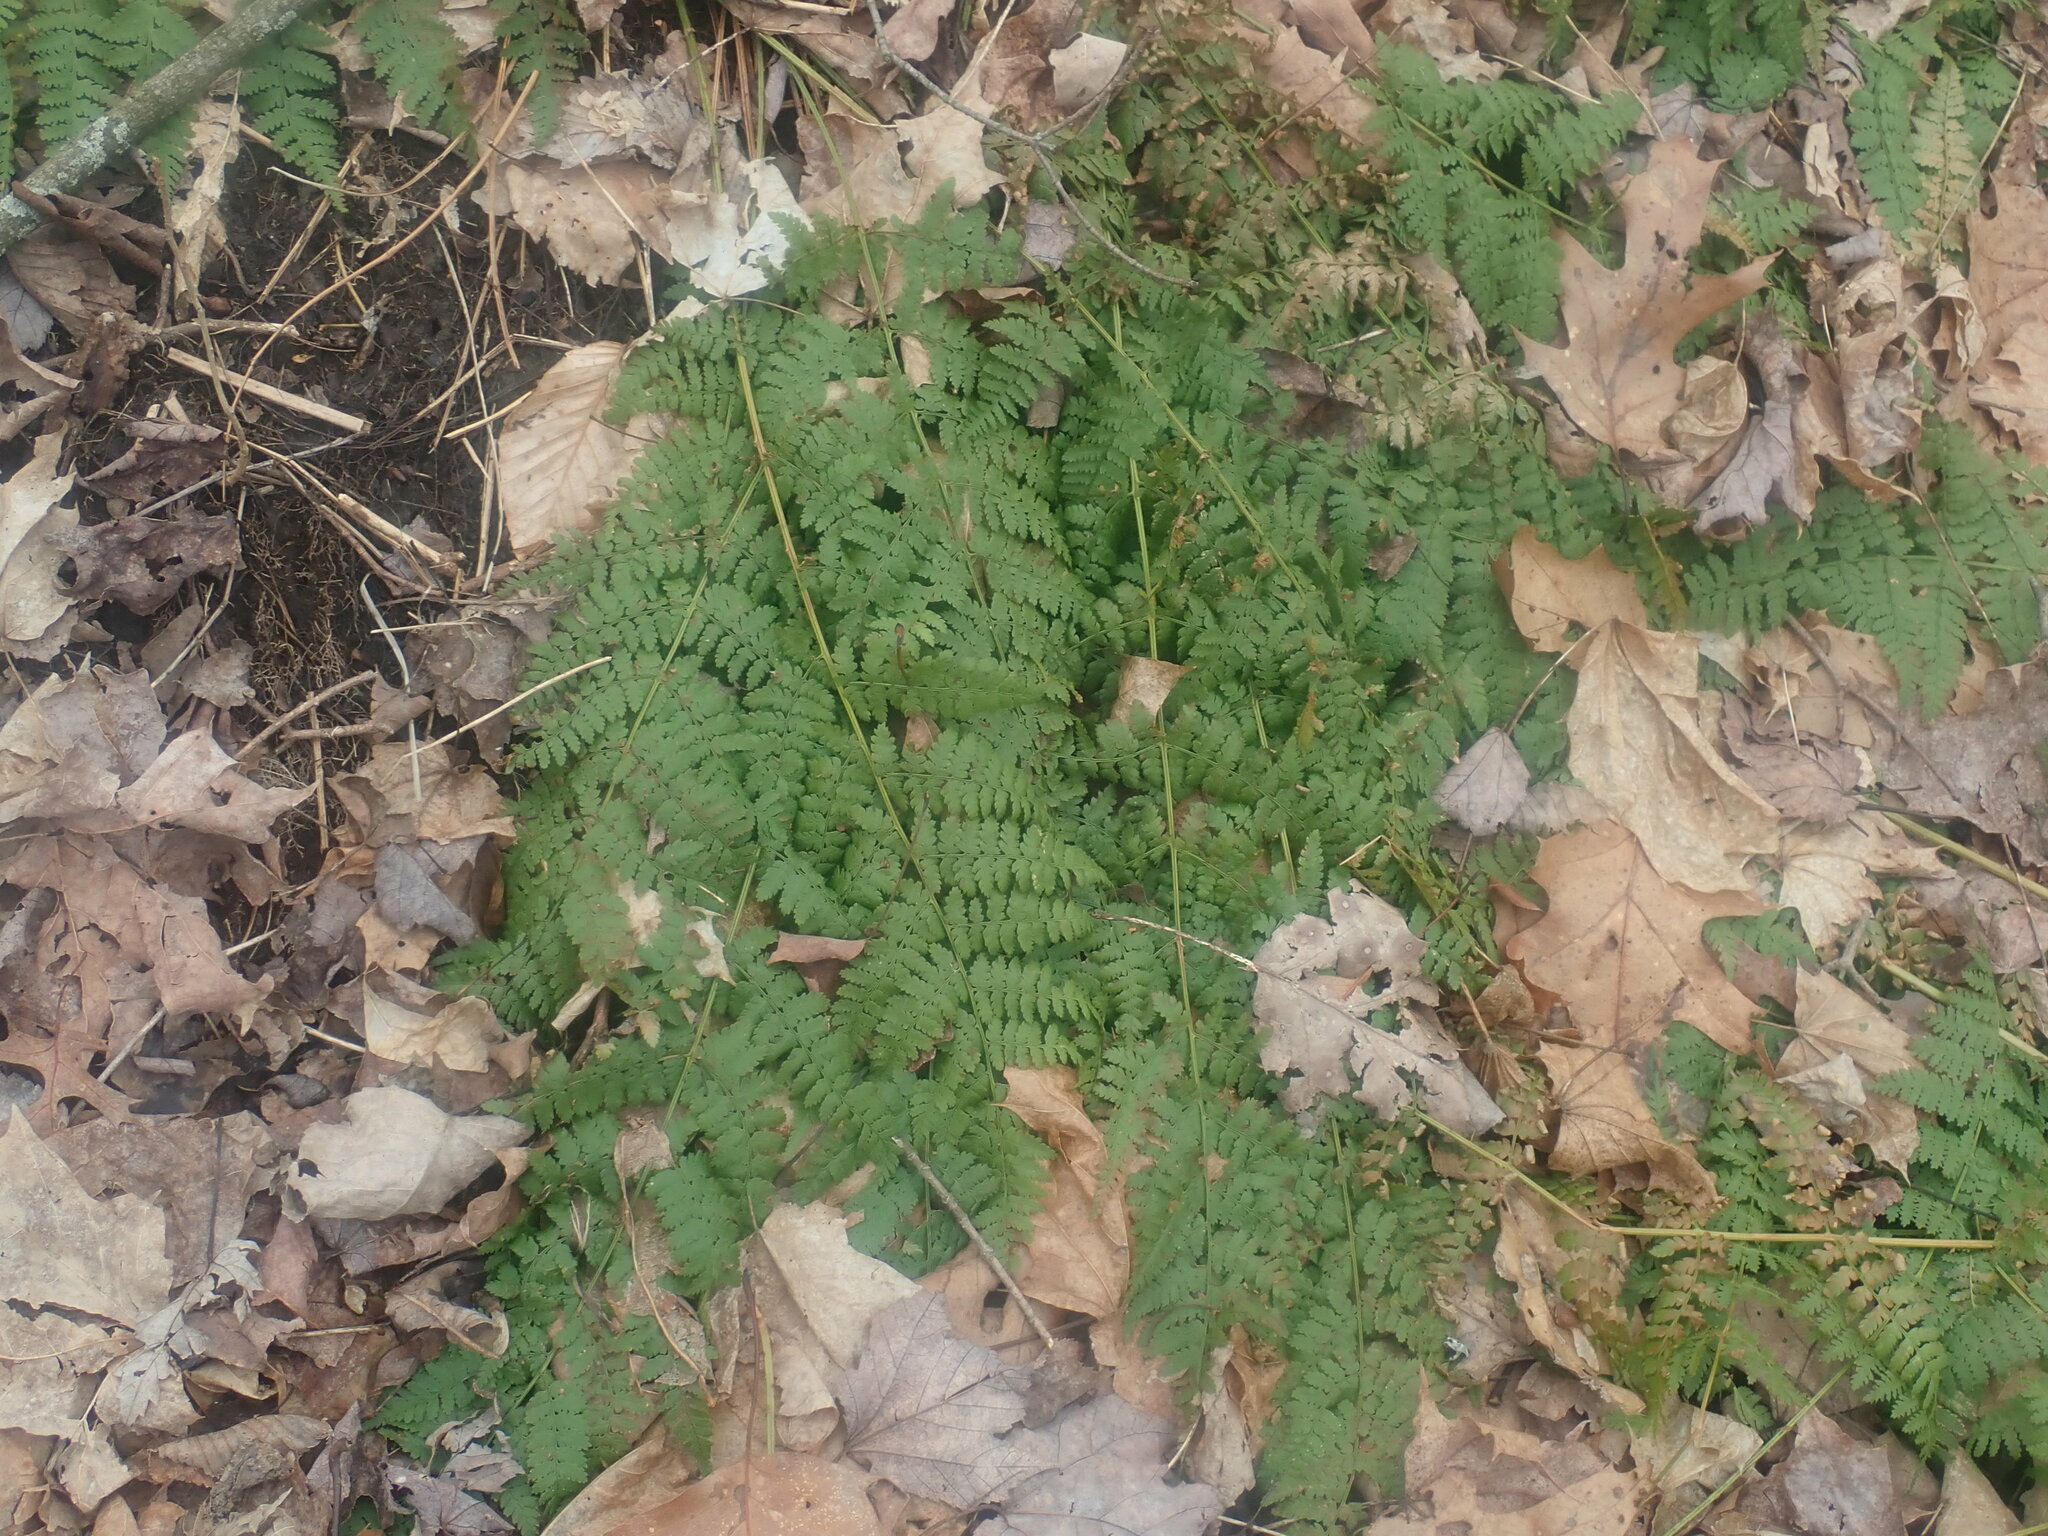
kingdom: Plantae
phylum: Tracheophyta
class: Polypodiopsida
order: Polypodiales
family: Dryopteridaceae
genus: Dryopteris
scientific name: Dryopteris intermedia
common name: Evergreen wood fern
